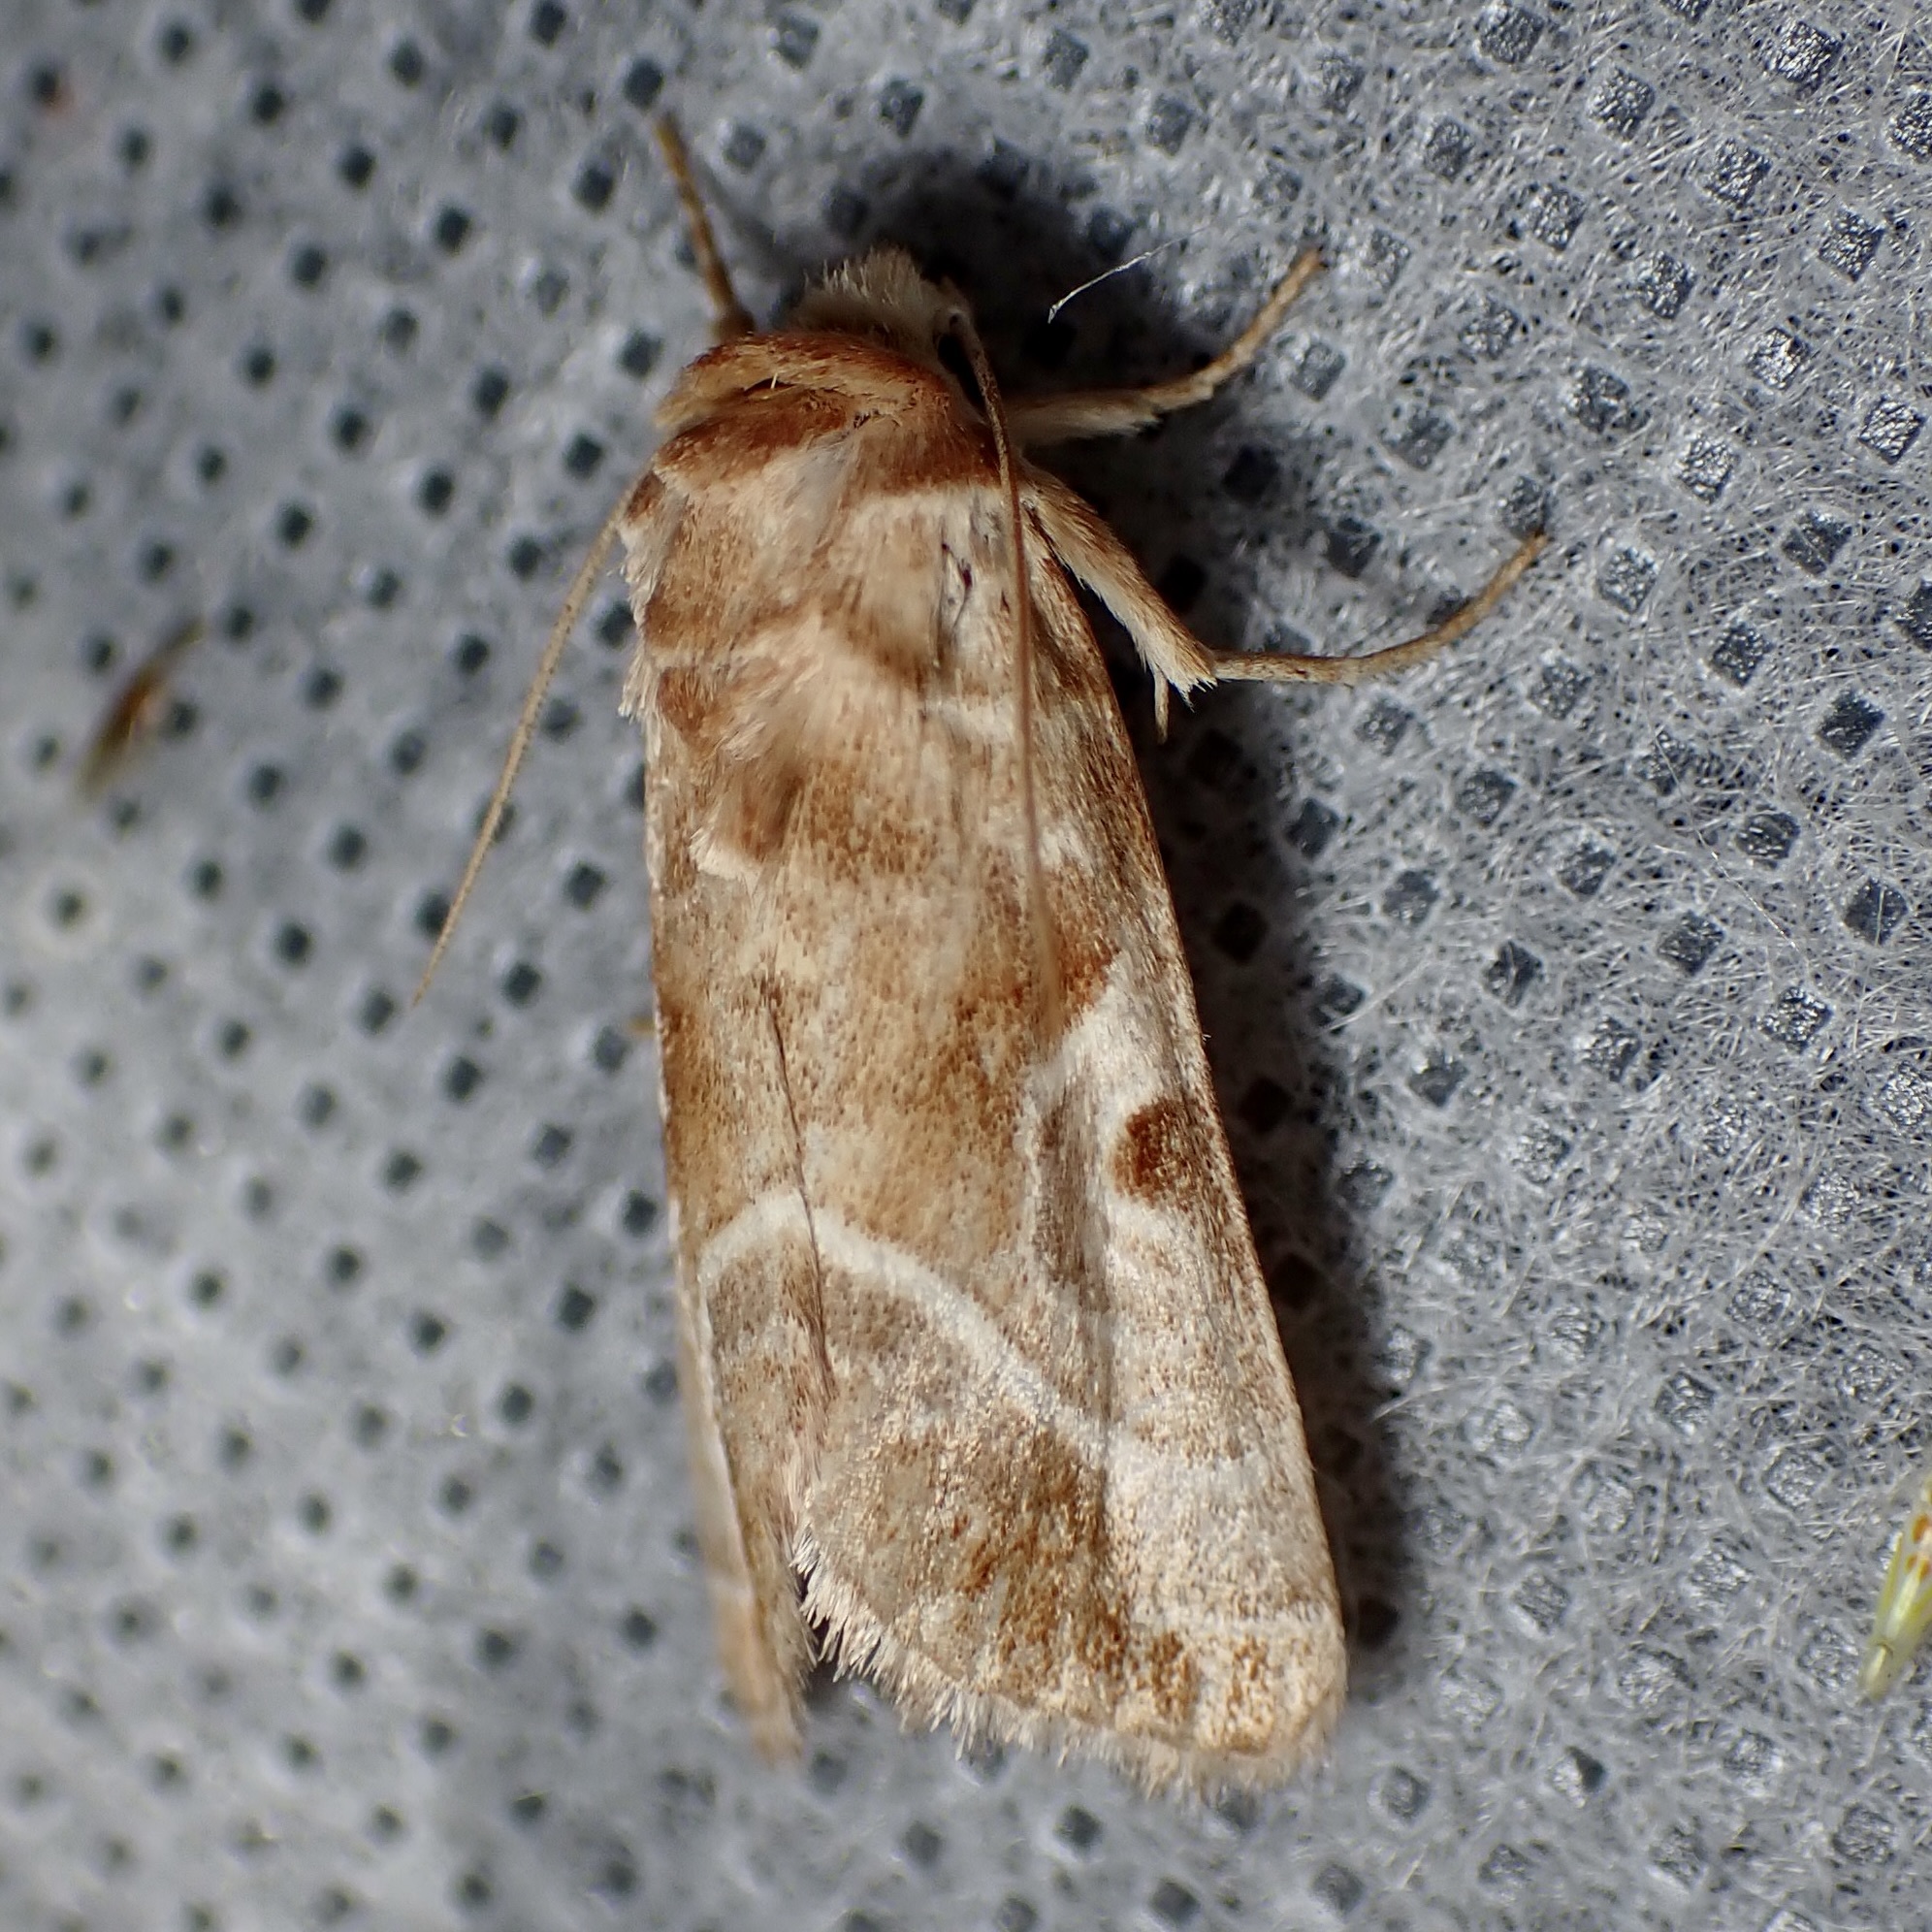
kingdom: Animalia
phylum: Arthropoda
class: Insecta
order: Lepidoptera
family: Noctuidae
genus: Hexorthodes
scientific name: Hexorthodes accurata
